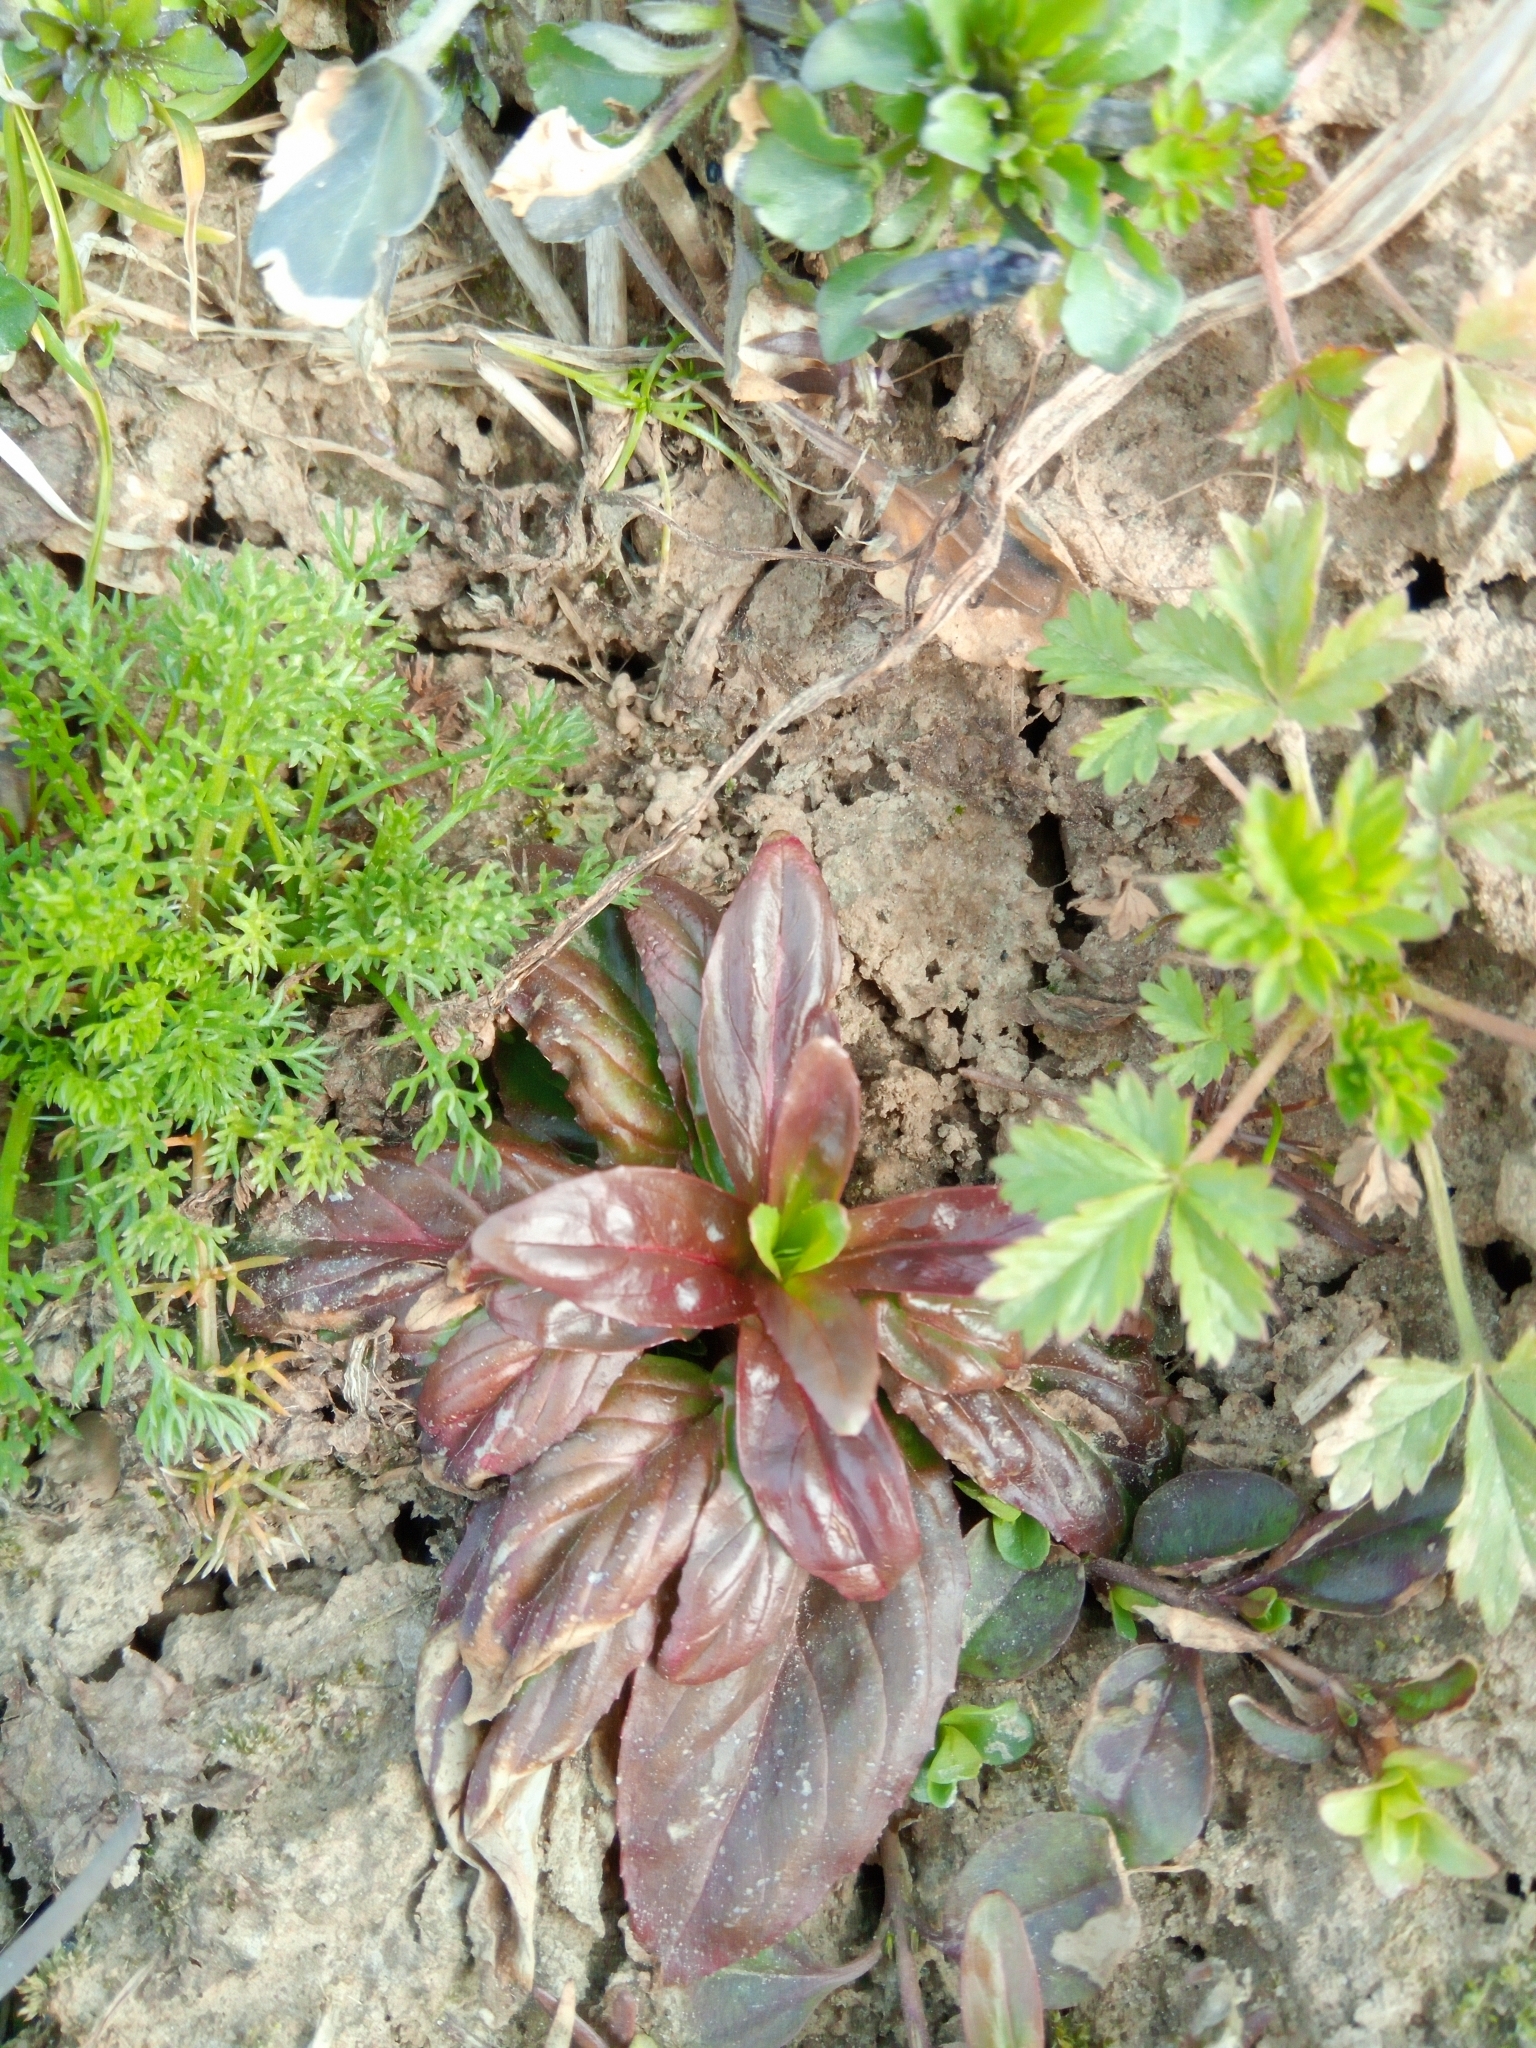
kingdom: Plantae
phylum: Tracheophyta
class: Magnoliopsida
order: Myrtales
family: Onagraceae
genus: Epilobium
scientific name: Epilobium
